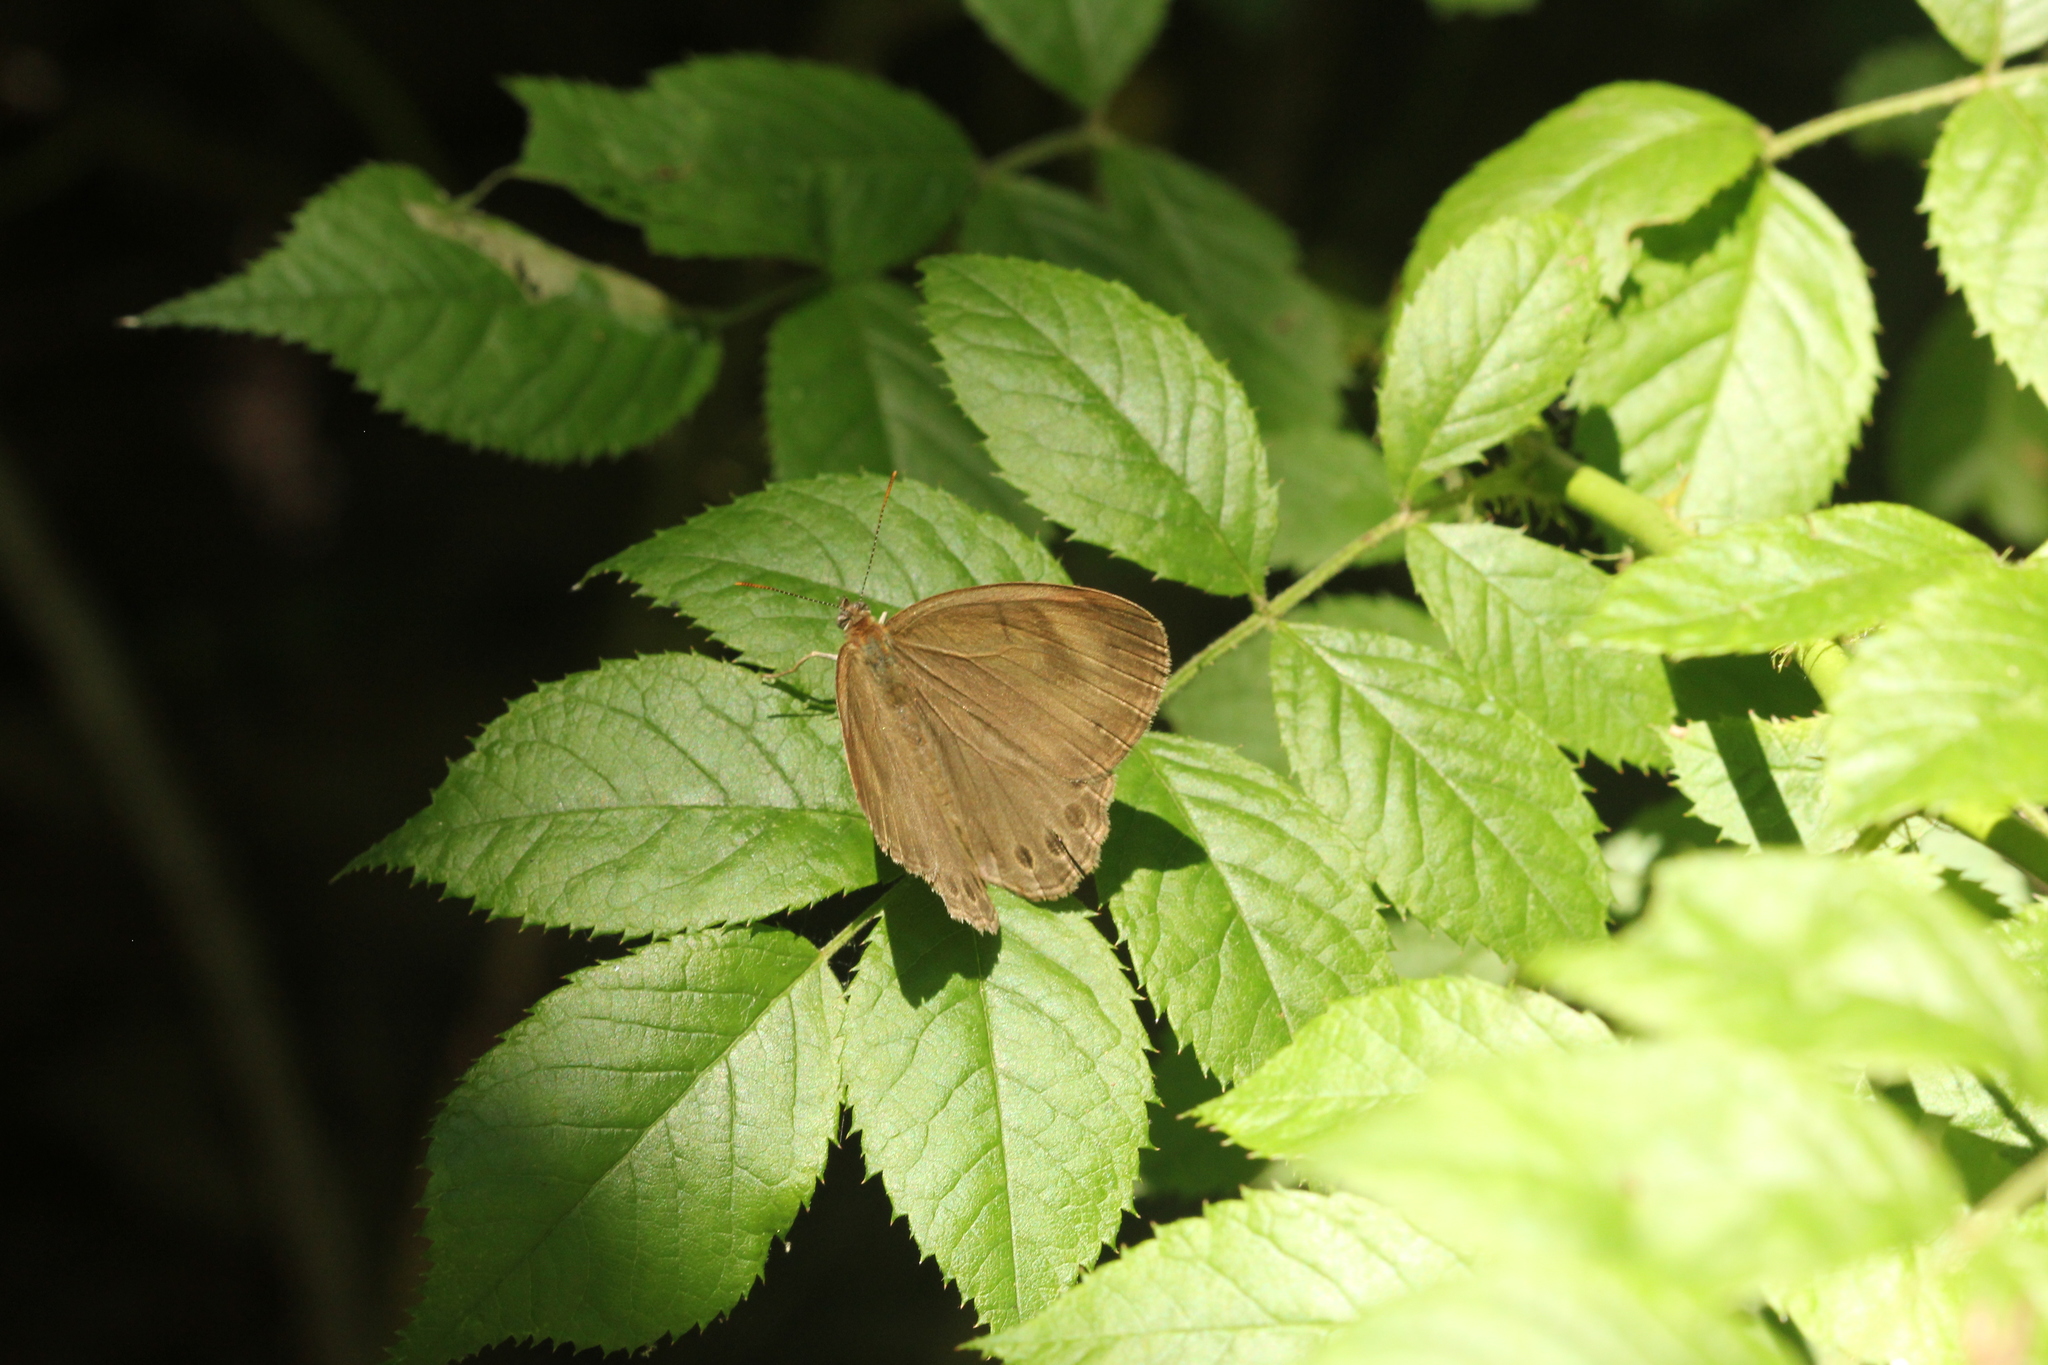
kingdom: Animalia
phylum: Arthropoda
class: Insecta
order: Lepidoptera
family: Nymphalidae
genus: Lethe
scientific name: Lethe eurydice
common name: Eyed brown
